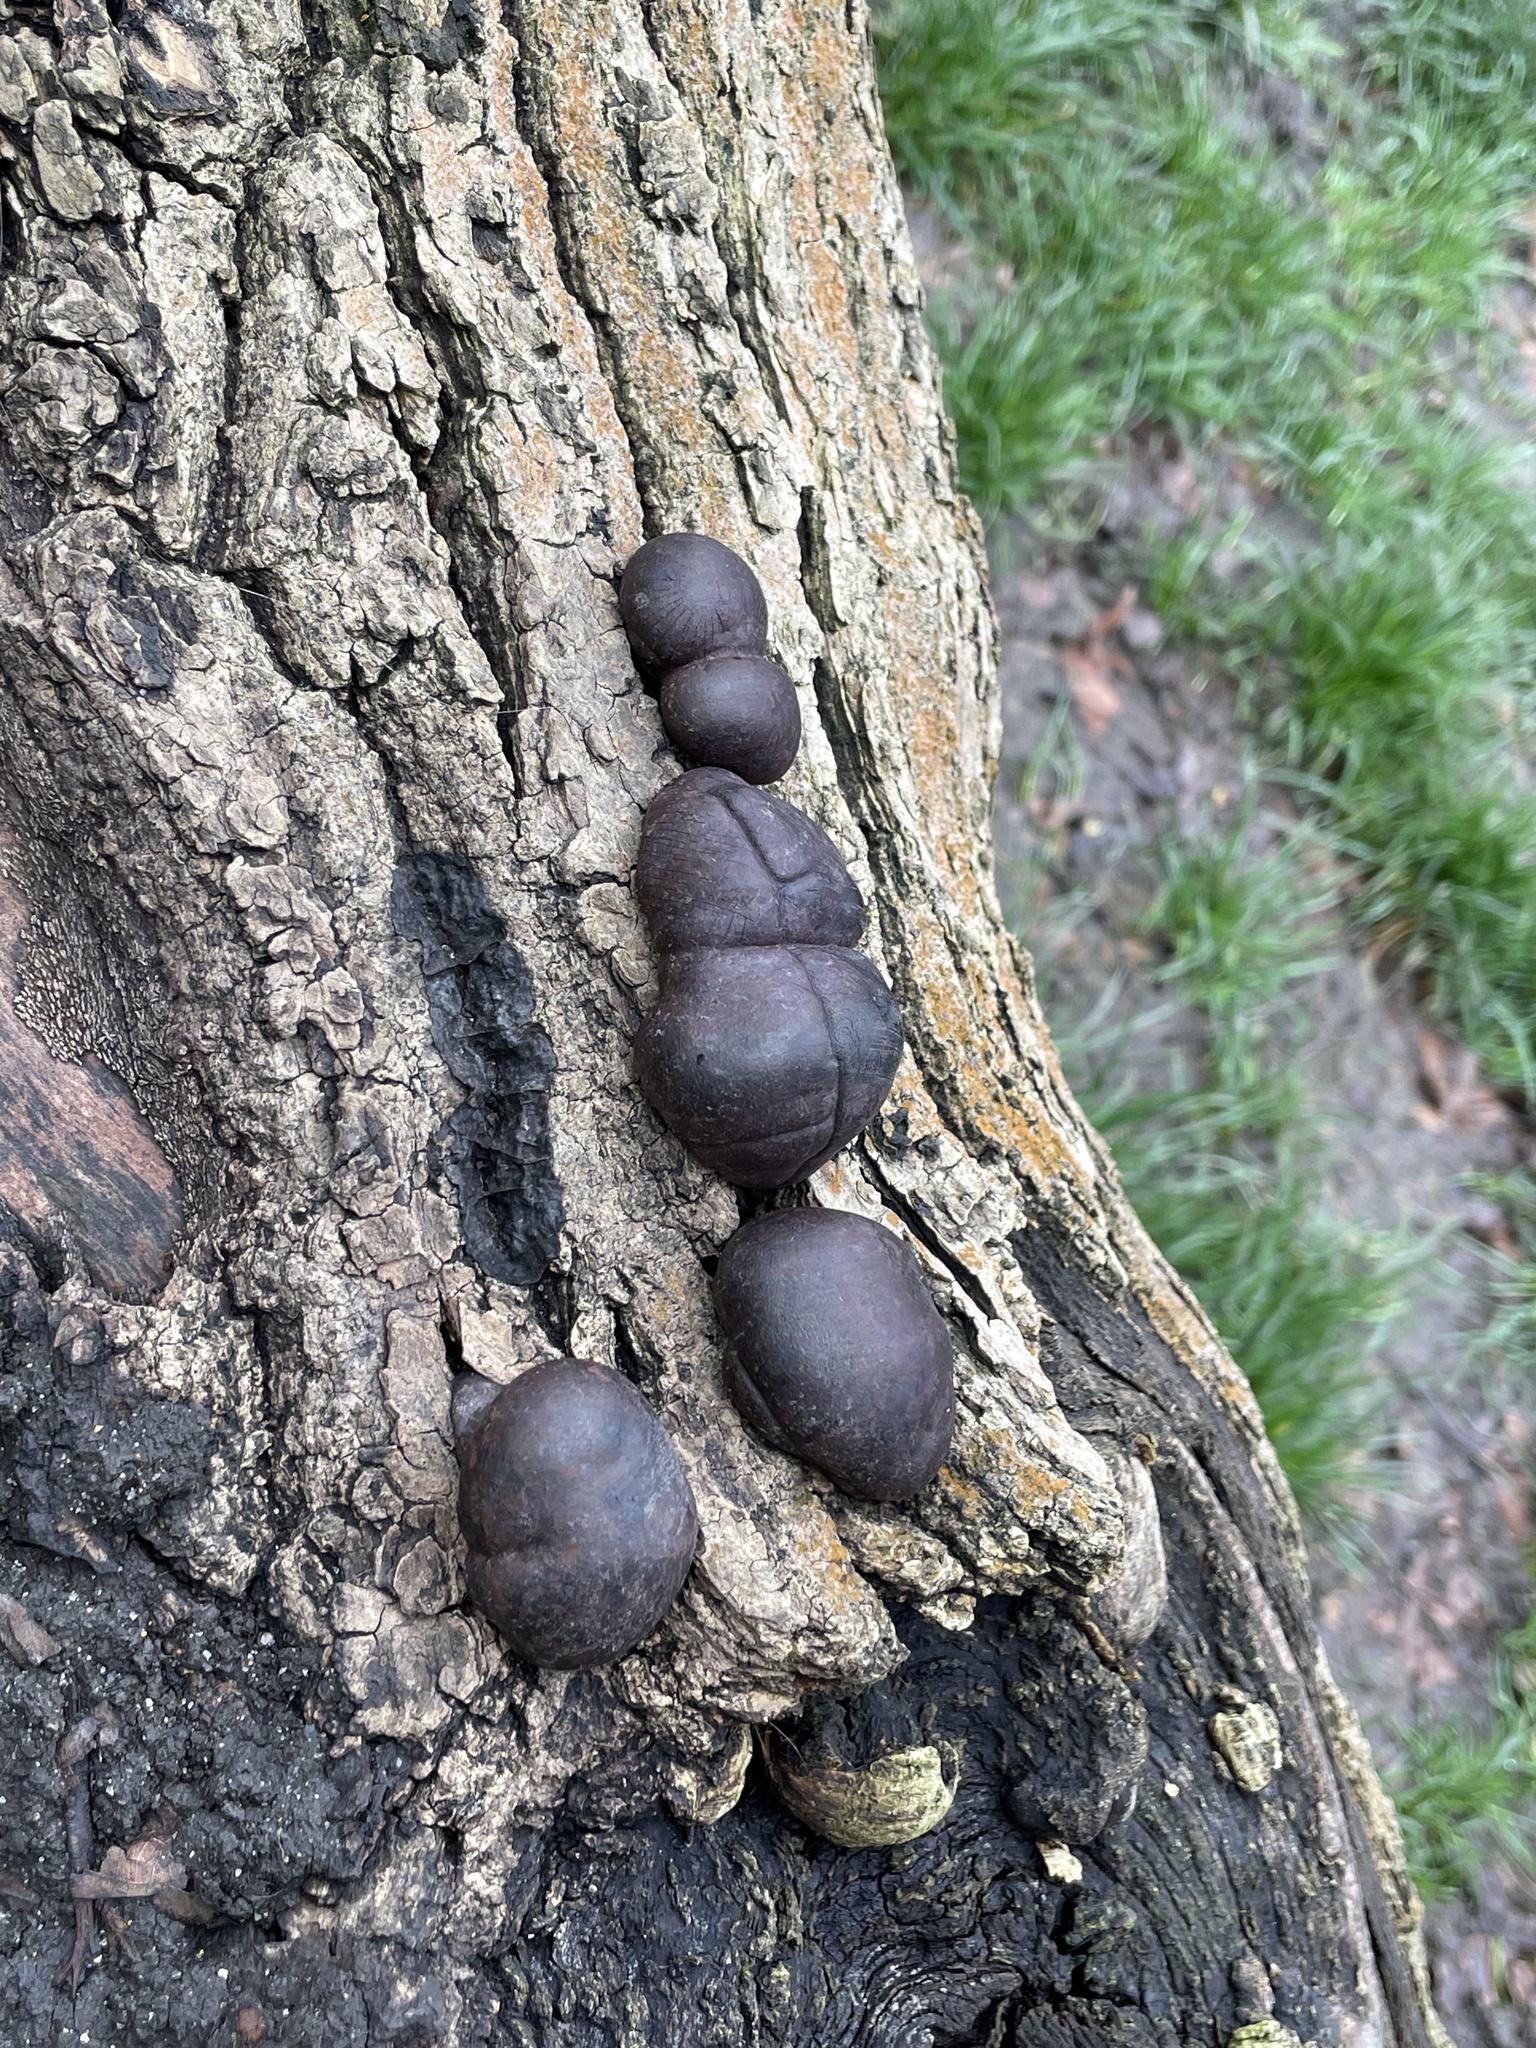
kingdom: Fungi
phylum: Ascomycota
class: Sordariomycetes
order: Xylariales
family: Hypoxylaceae
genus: Daldinia
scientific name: Daldinia concentrica
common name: Cramp balls
